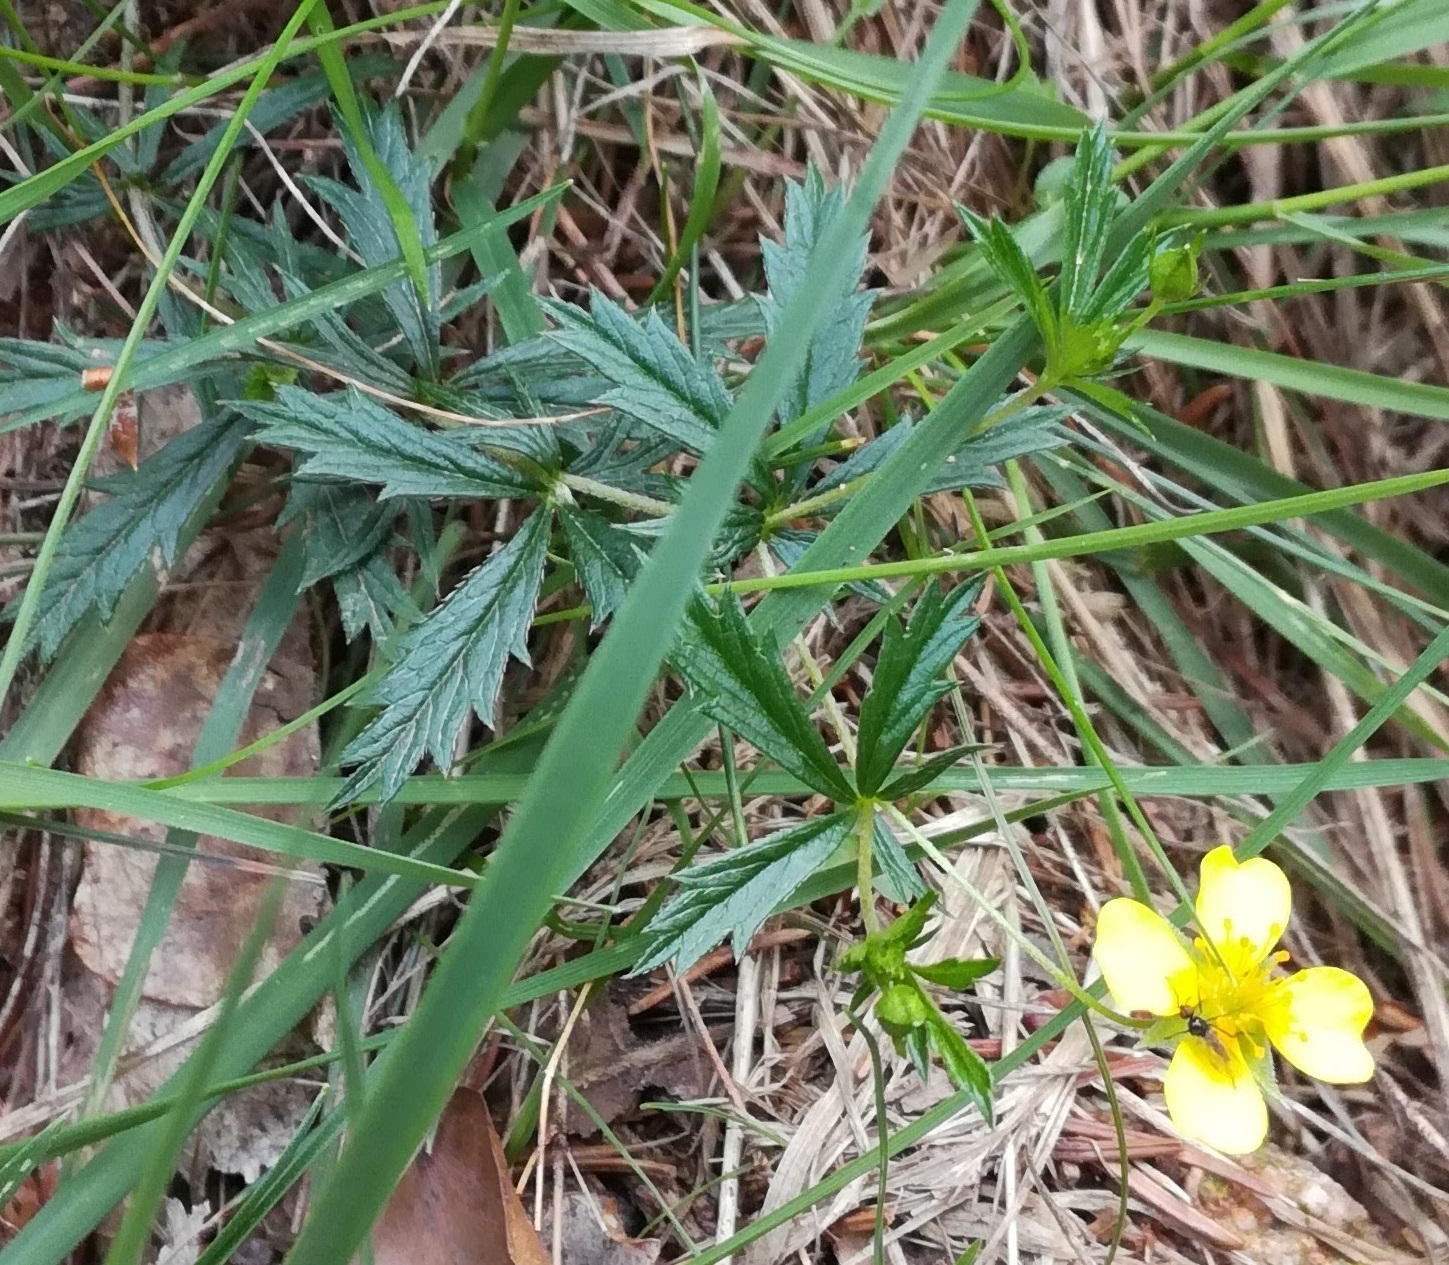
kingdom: Plantae
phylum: Tracheophyta
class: Magnoliopsida
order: Rosales
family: Rosaceae
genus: Potentilla
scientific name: Potentilla erecta
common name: Tormentil
